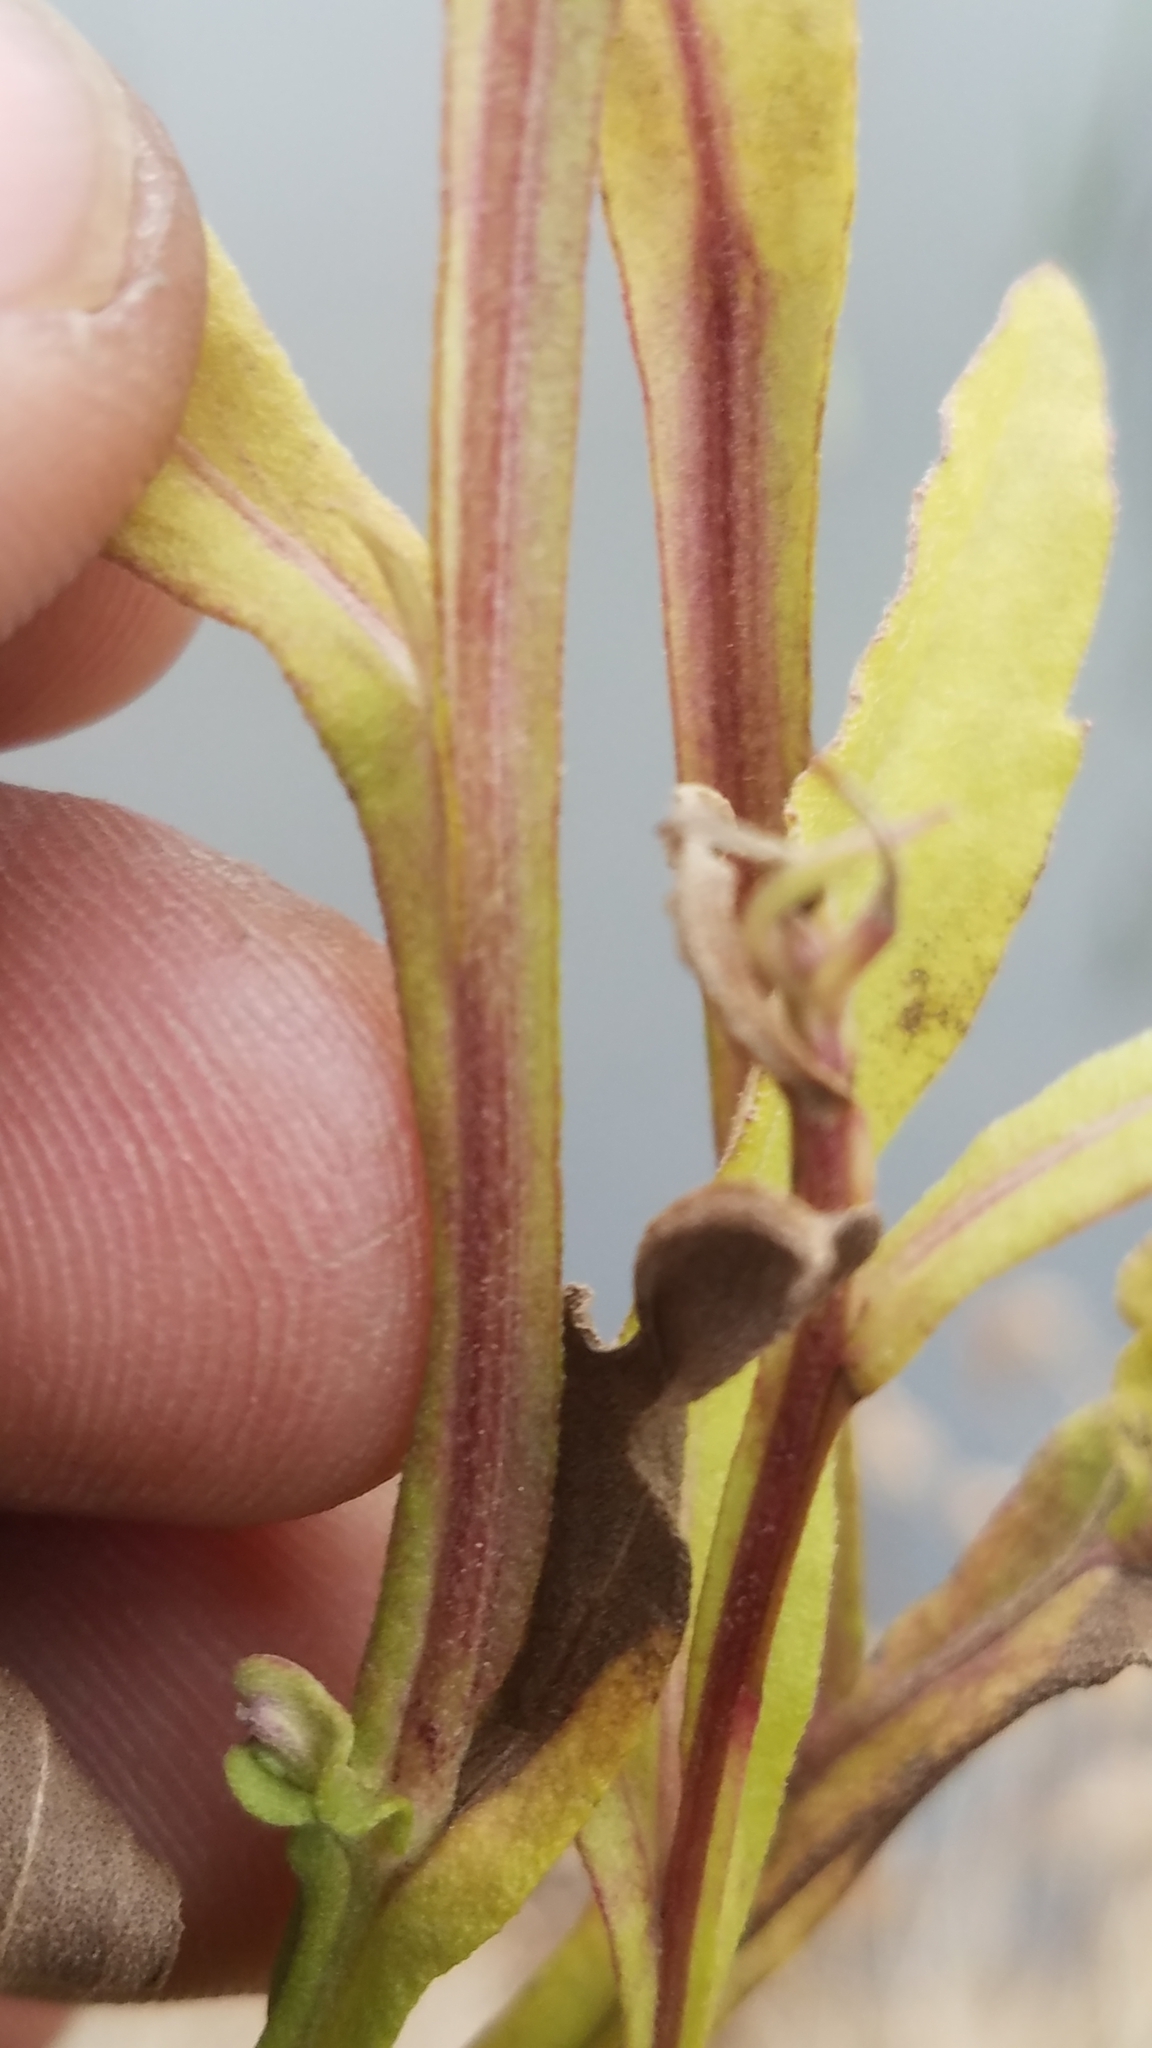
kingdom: Plantae
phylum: Tracheophyta
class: Magnoliopsida
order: Asterales
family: Asteraceae
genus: Helenium
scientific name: Helenium autumnale
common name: Sneezeweed
